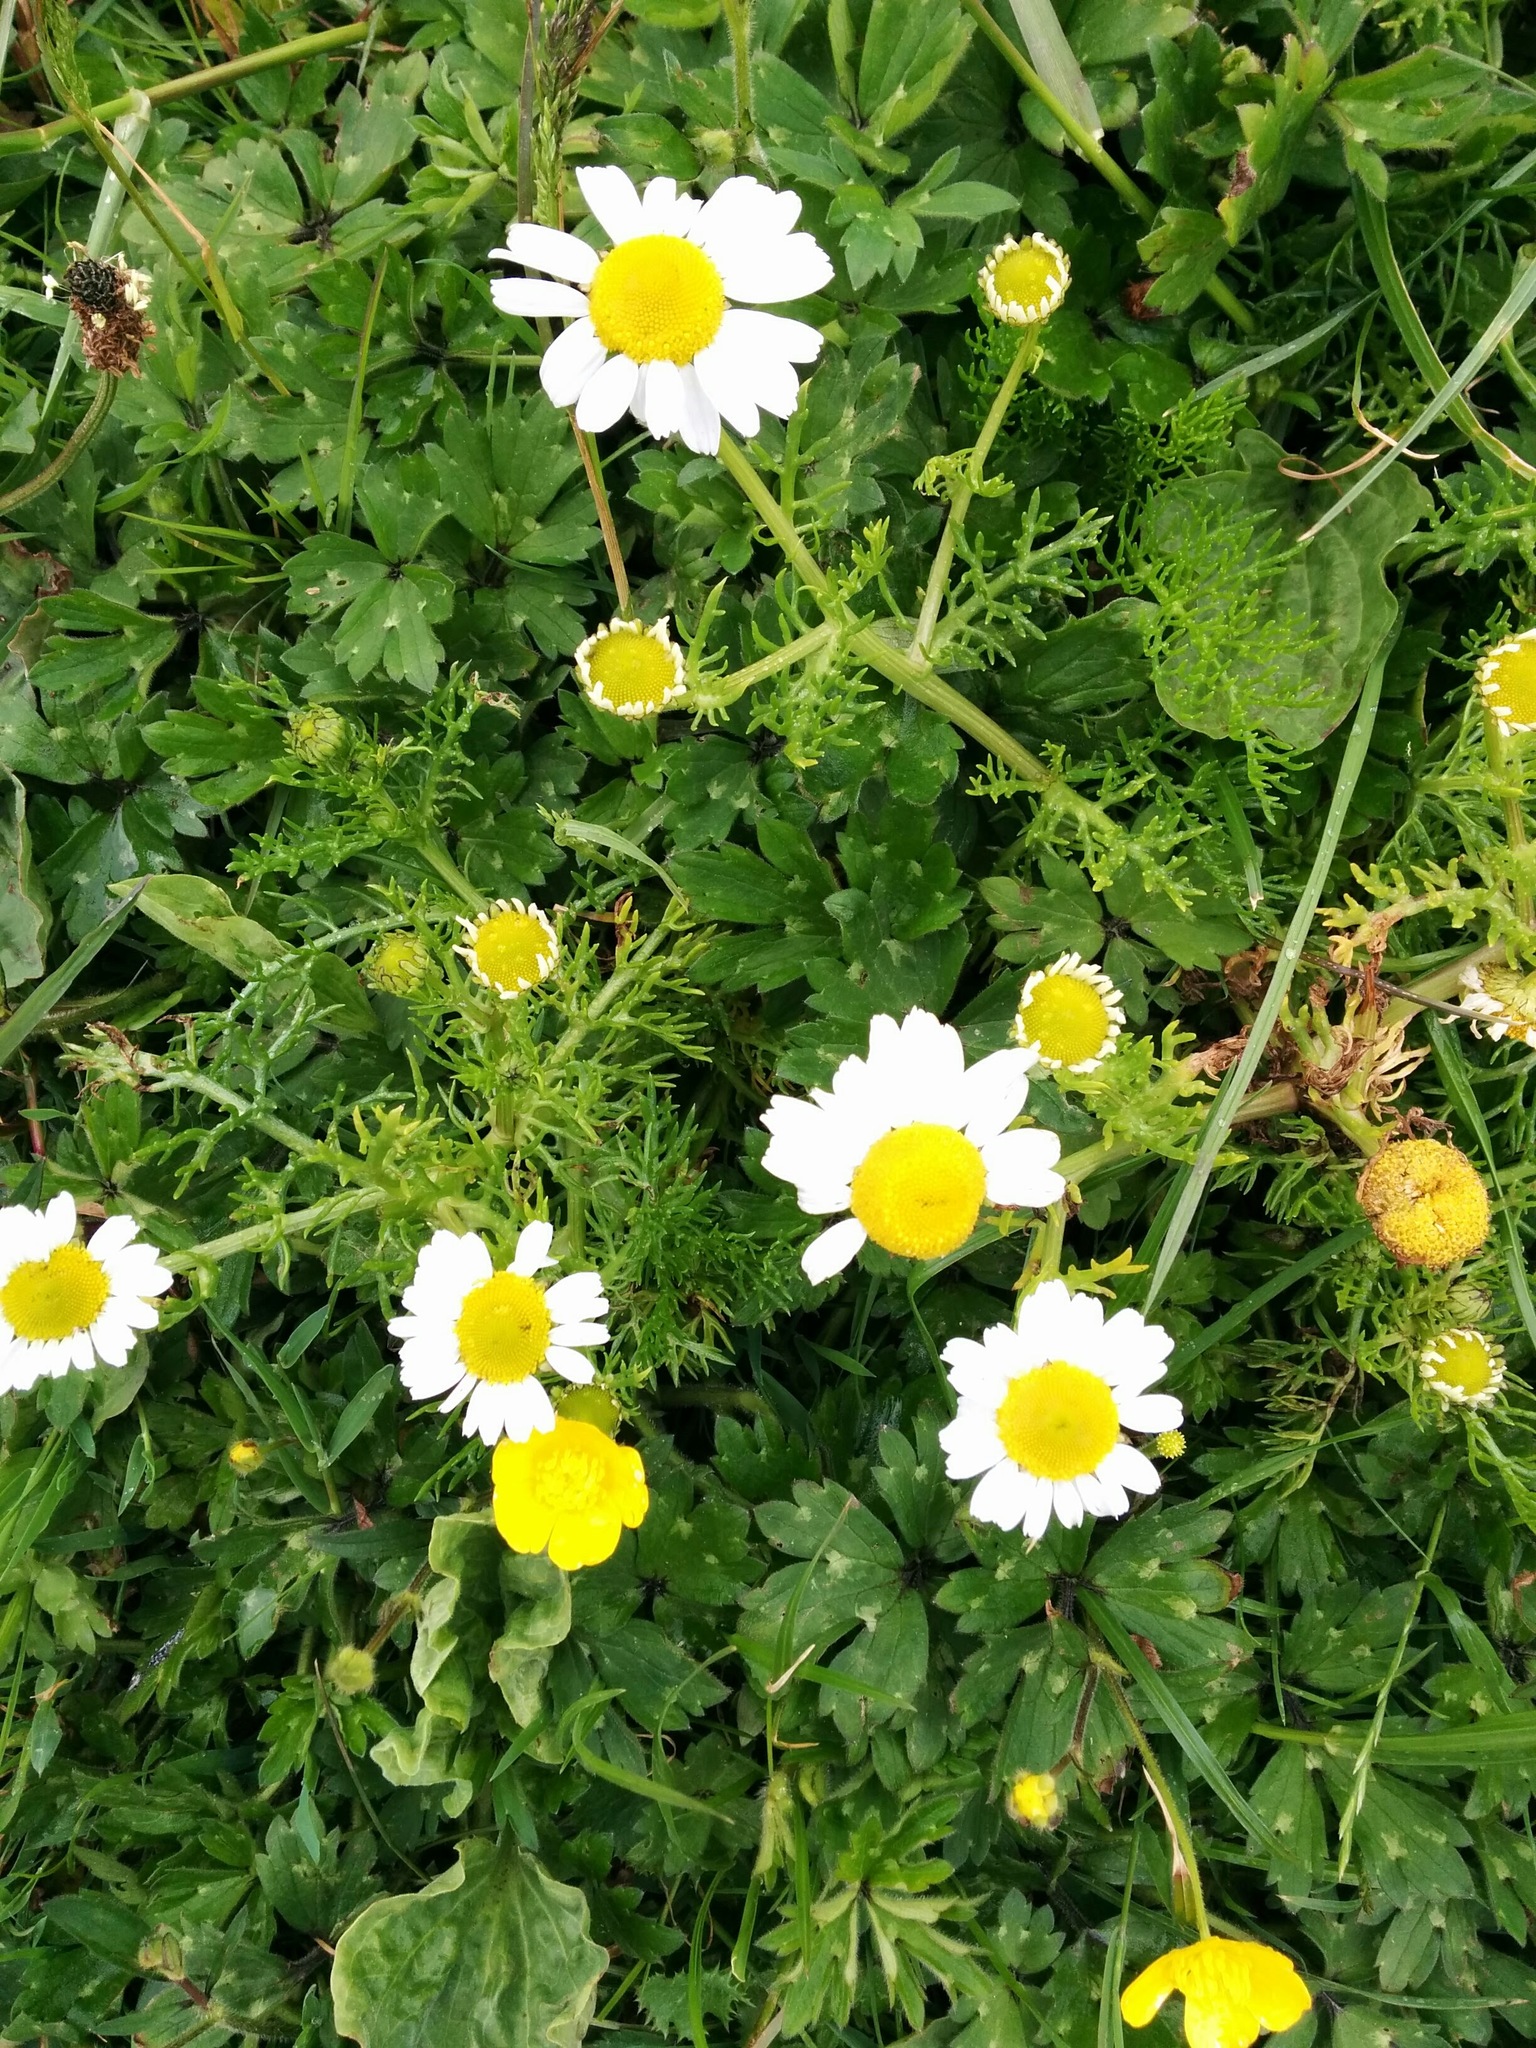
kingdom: Plantae
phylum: Tracheophyta
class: Magnoliopsida
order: Asterales
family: Asteraceae
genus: Matricaria
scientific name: Matricaria chamomilla
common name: Scented mayweed
